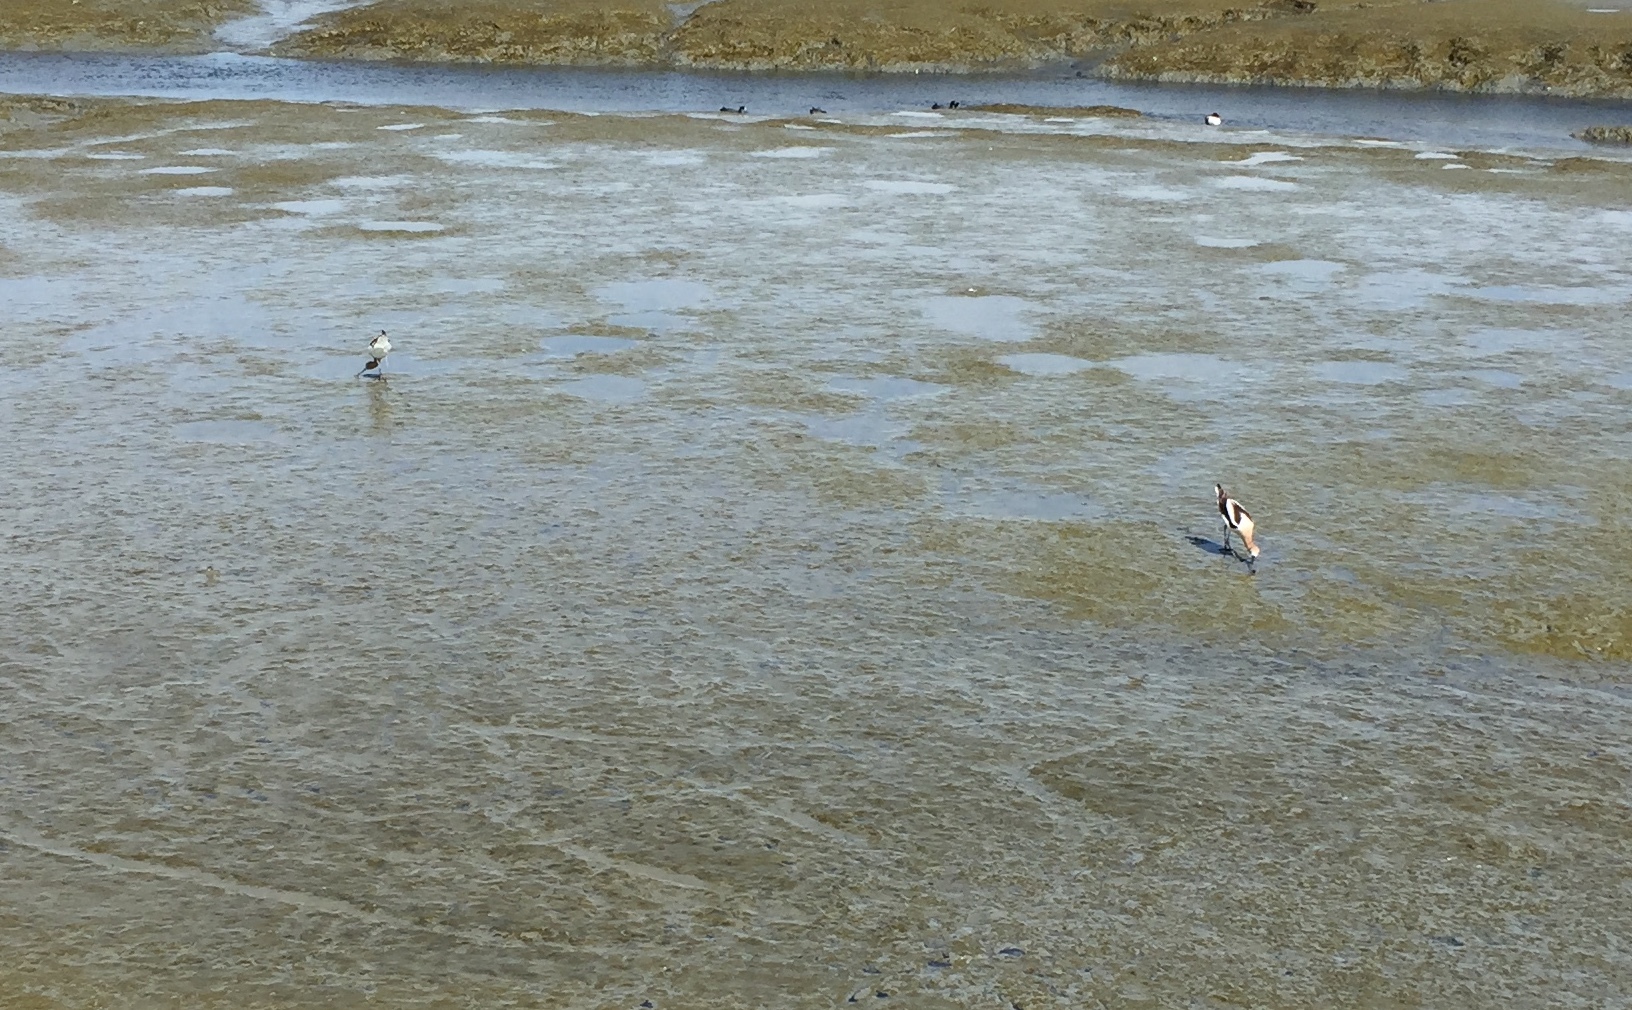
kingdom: Animalia
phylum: Chordata
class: Aves
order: Charadriiformes
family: Recurvirostridae
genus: Recurvirostra
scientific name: Recurvirostra americana
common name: American avocet
